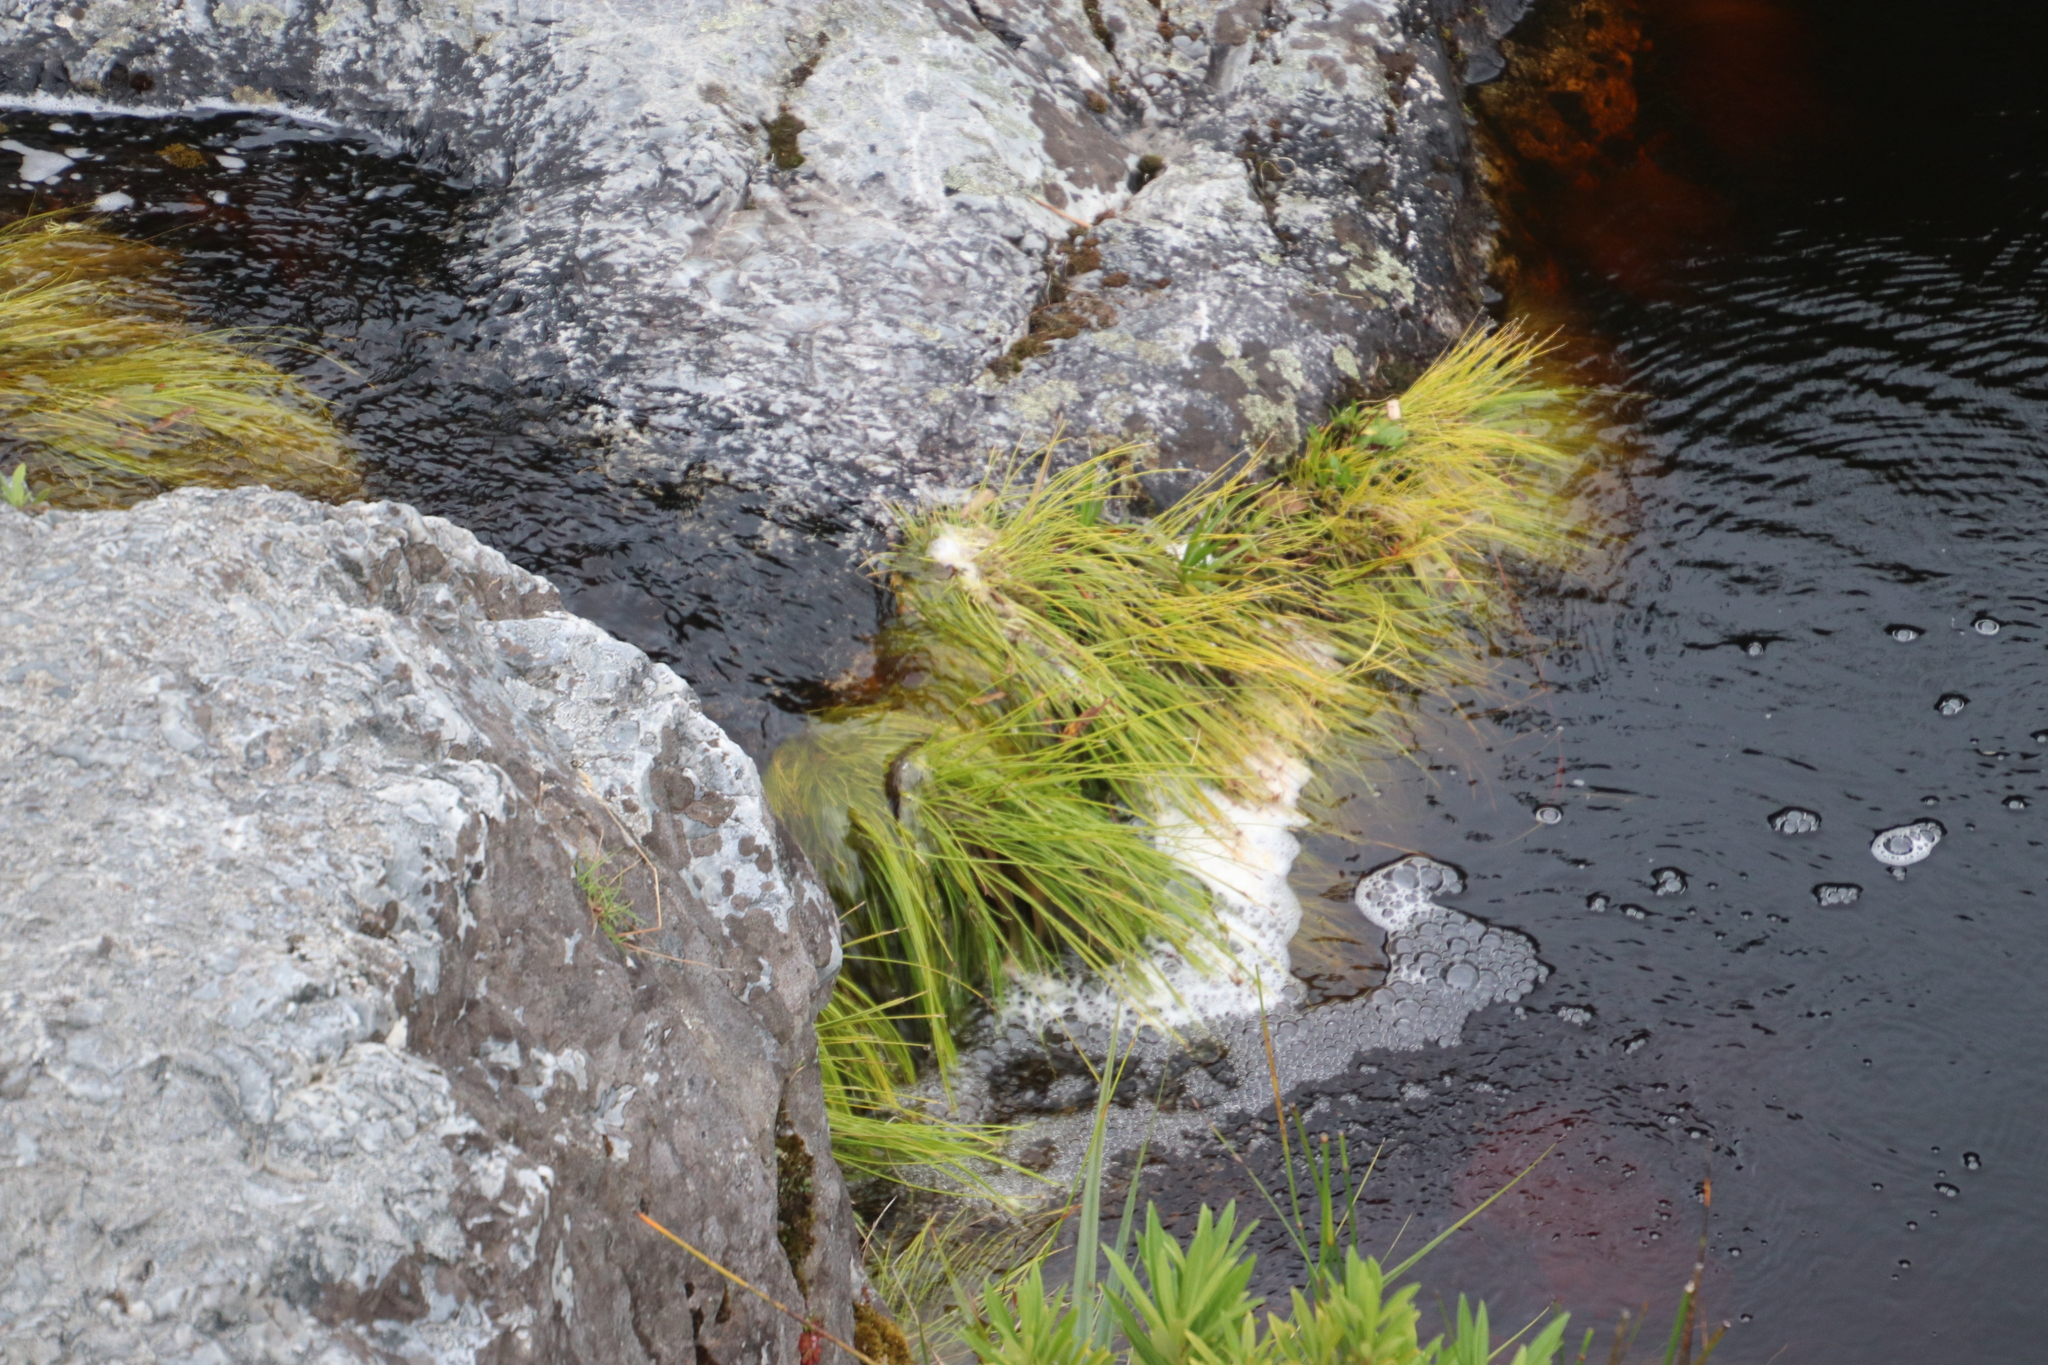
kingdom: Plantae
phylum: Tracheophyta
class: Liliopsida
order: Poales
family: Cyperaceae
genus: Isolepis
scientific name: Isolepis digitata
